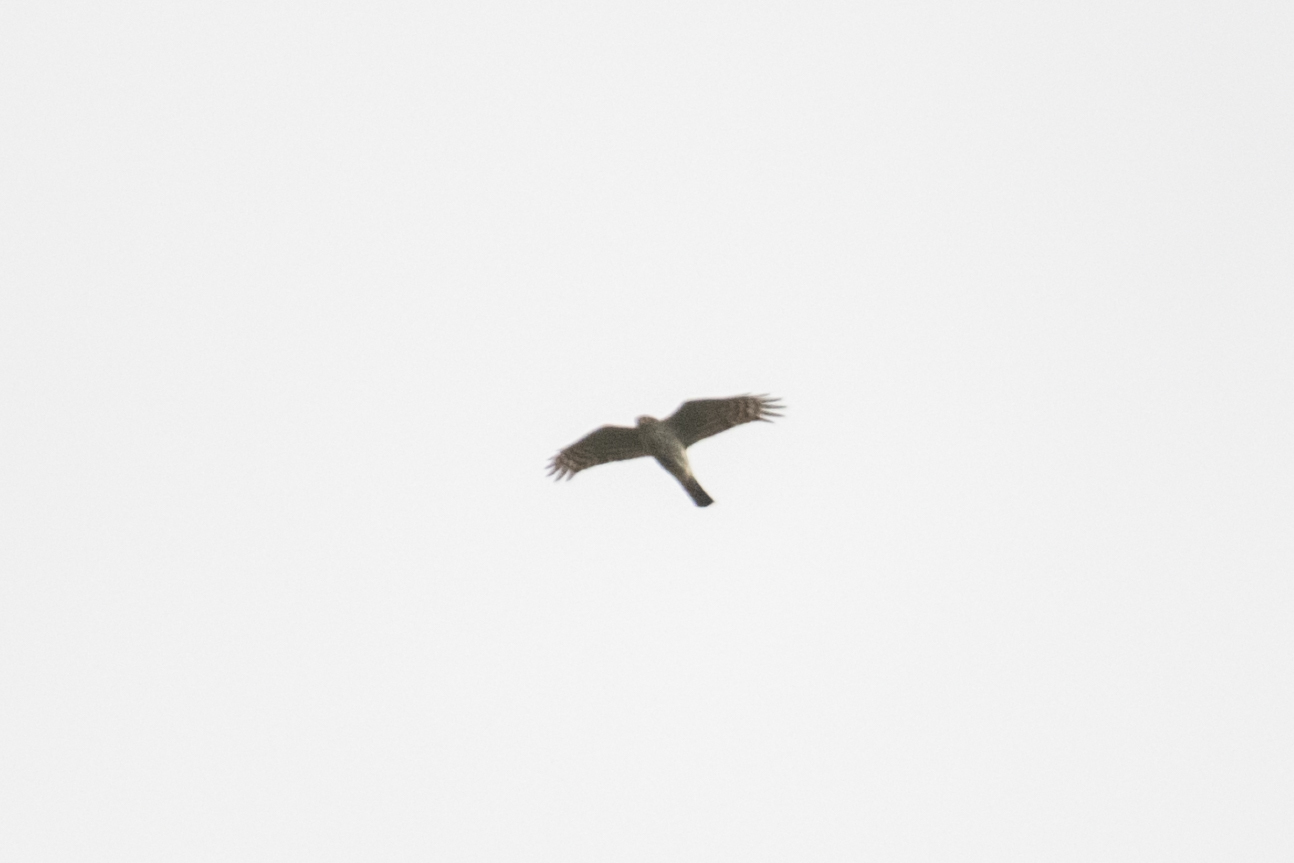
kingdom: Animalia
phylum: Chordata
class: Aves
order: Accipitriformes
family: Accipitridae
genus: Accipiter
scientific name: Accipiter nisus
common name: Eurasian sparrowhawk
